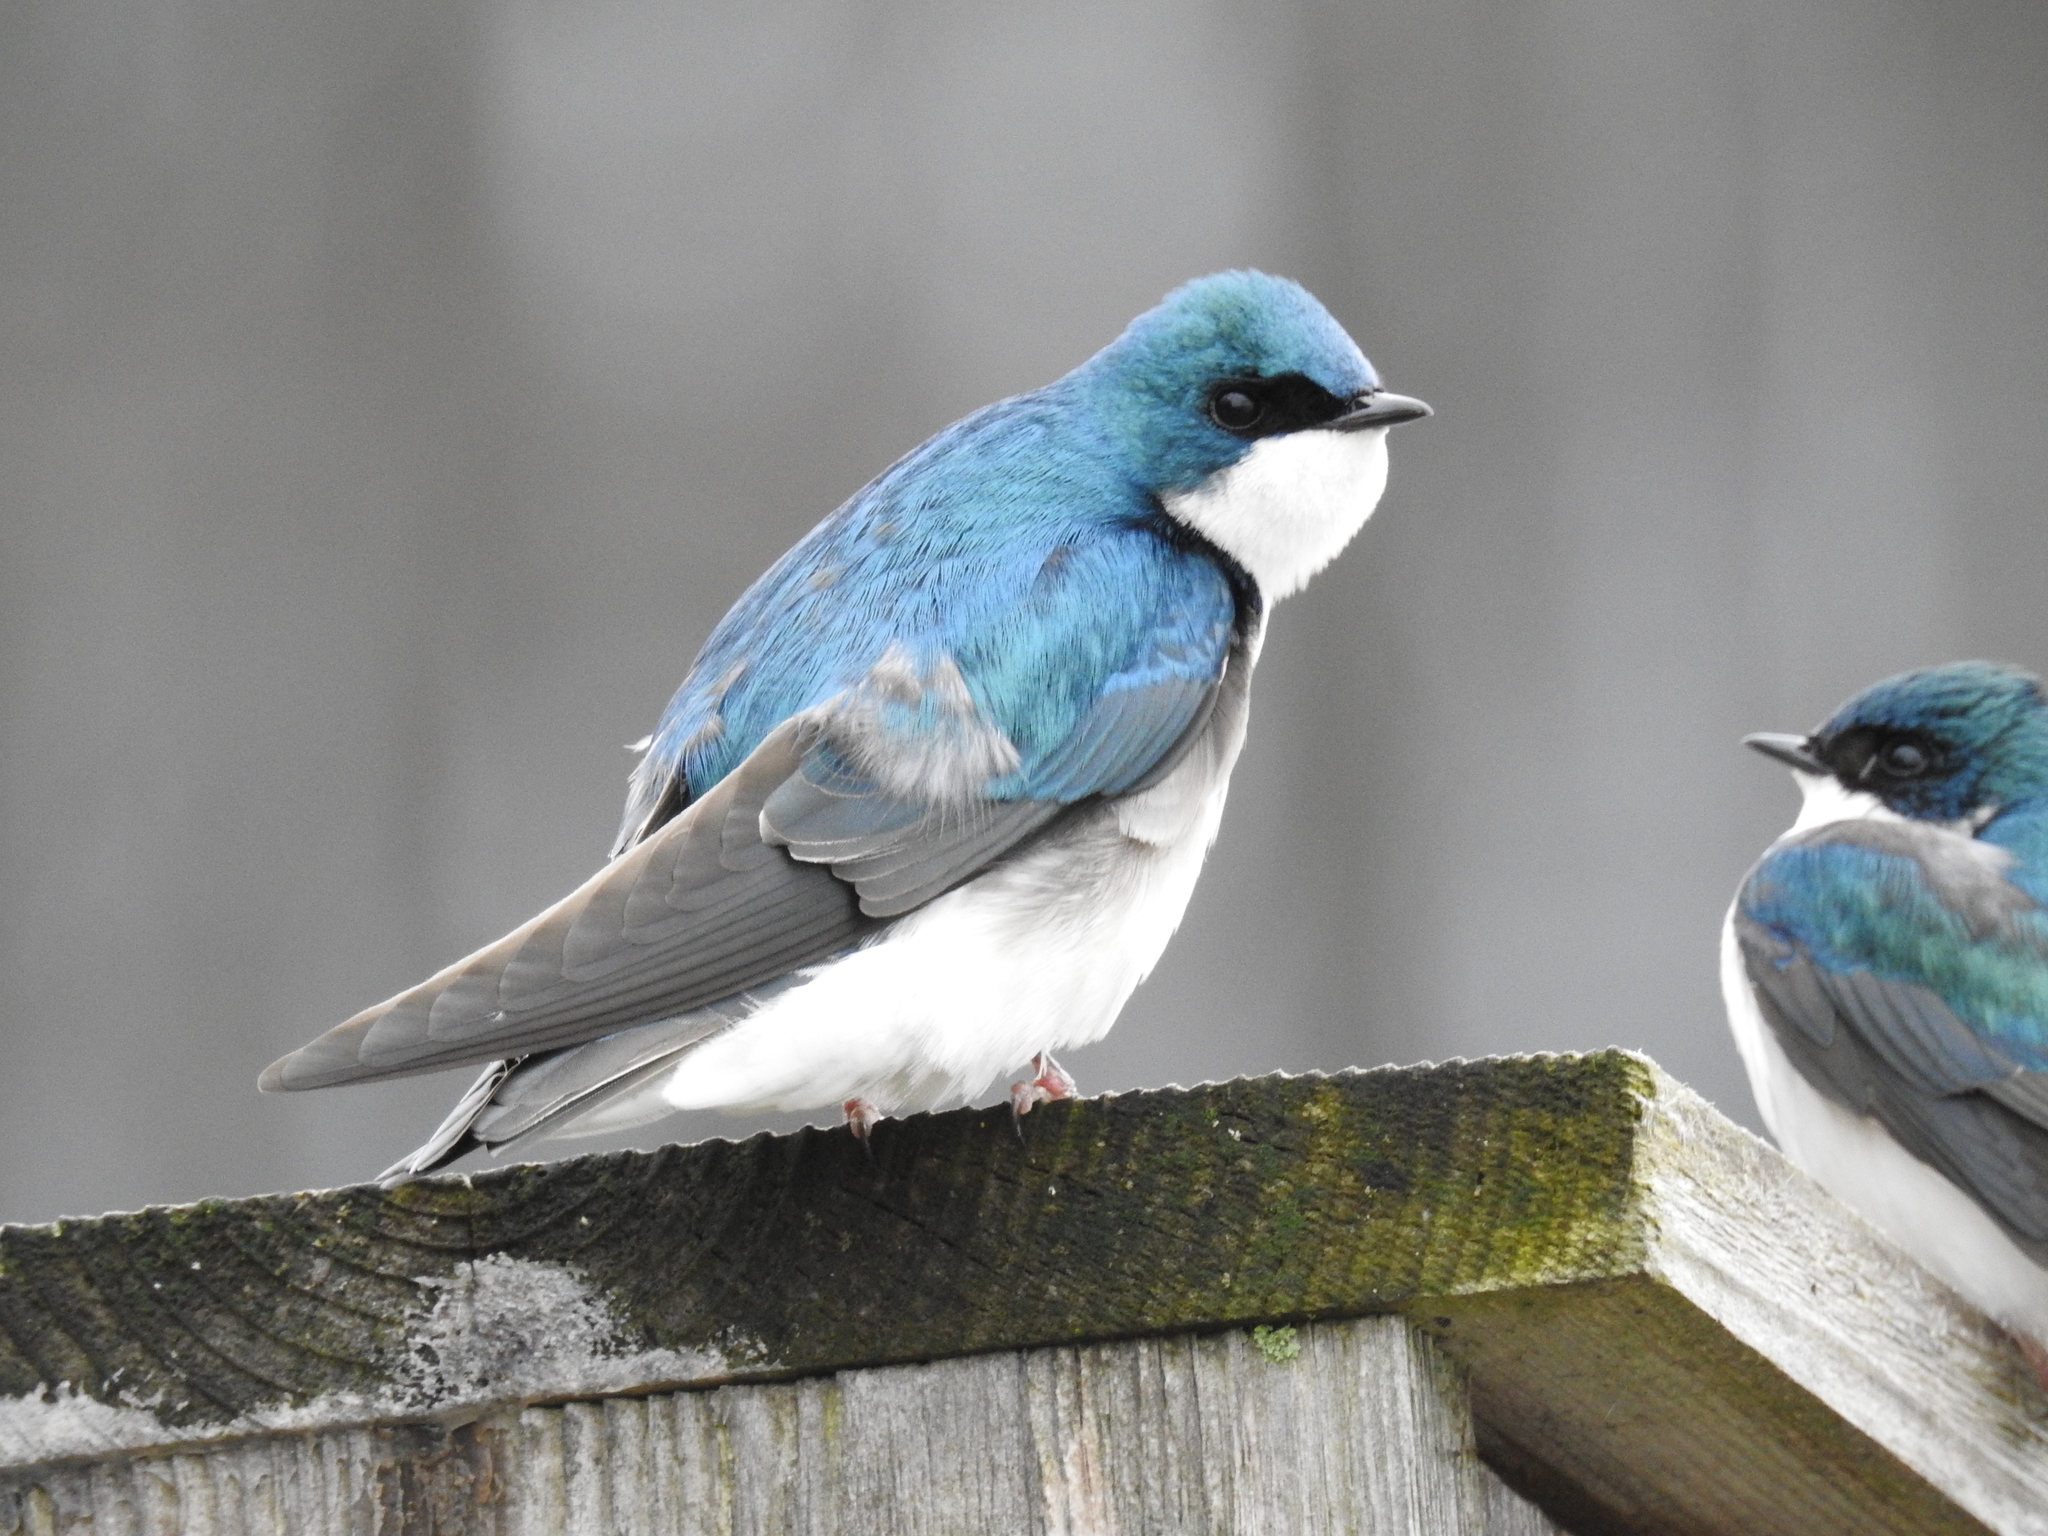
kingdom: Animalia
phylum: Chordata
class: Aves
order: Passeriformes
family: Hirundinidae
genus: Tachycineta
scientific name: Tachycineta bicolor
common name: Tree swallow
